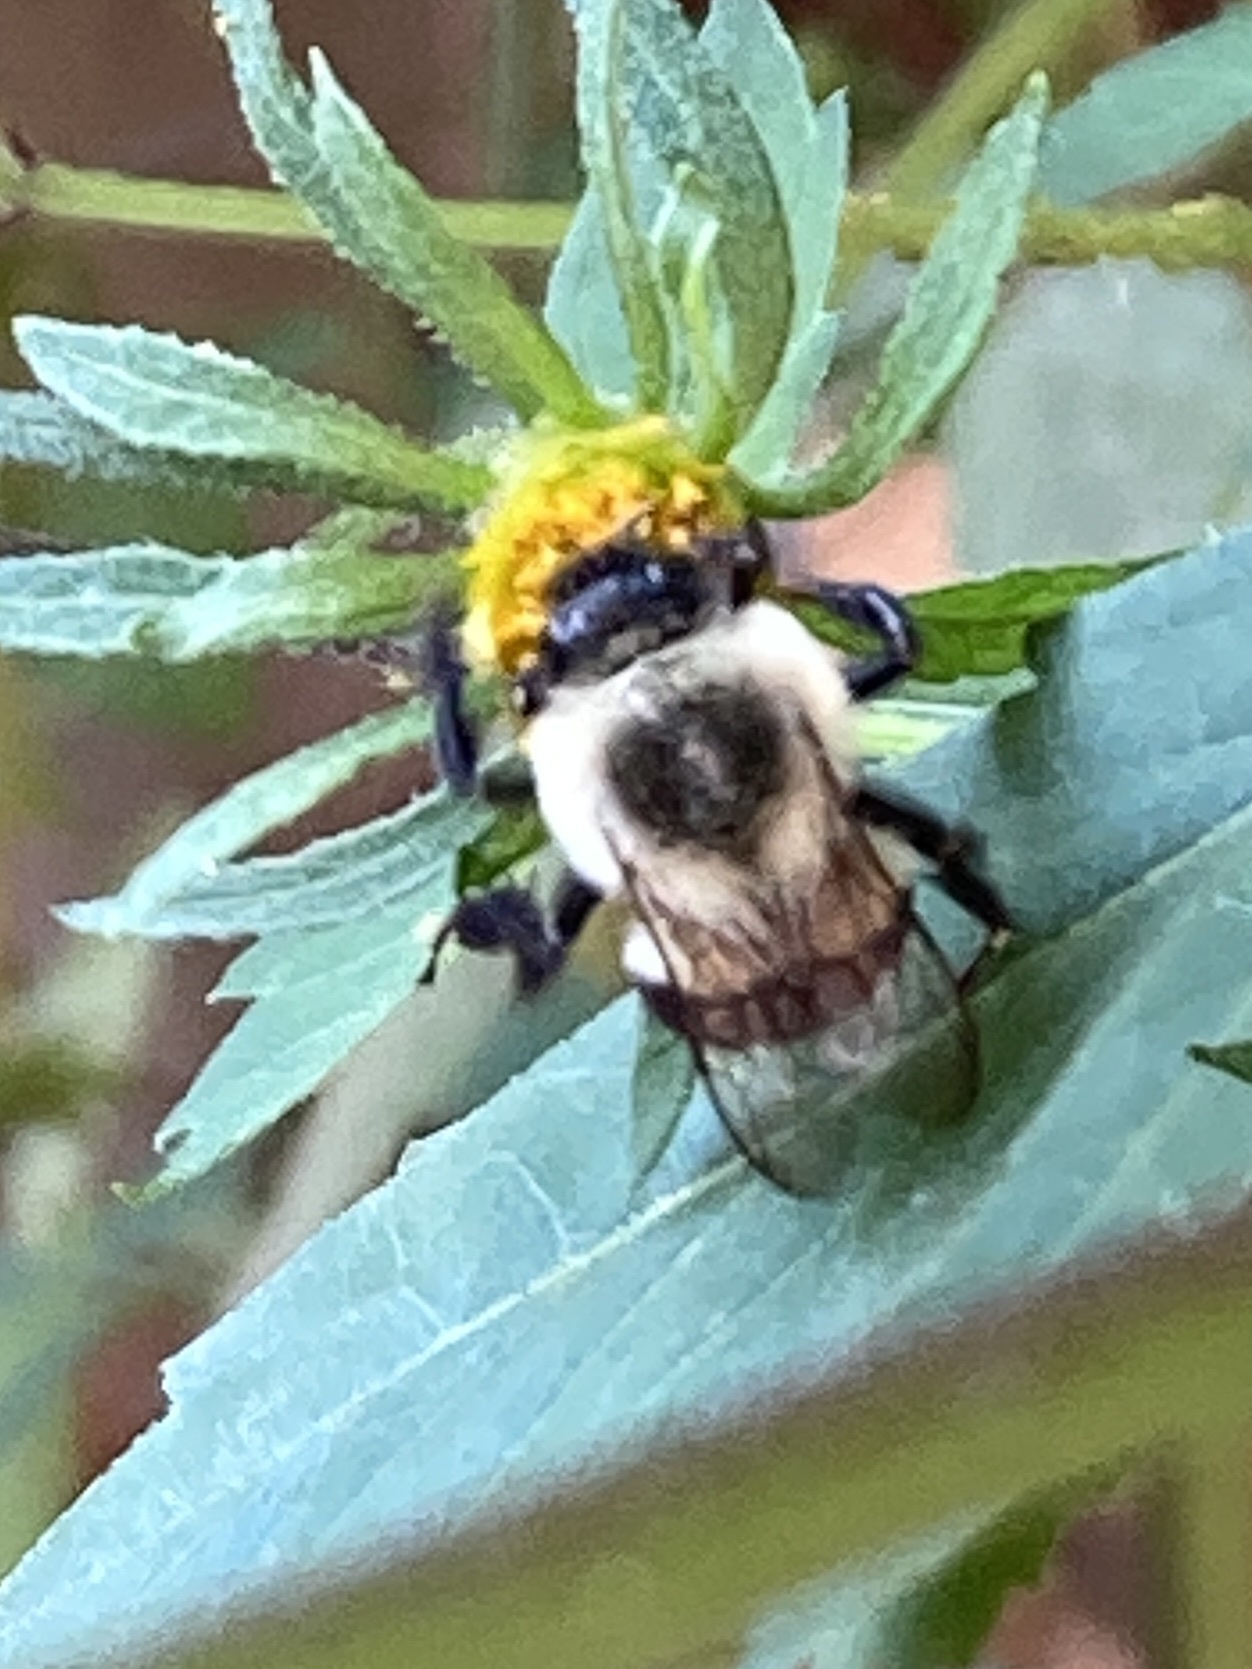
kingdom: Animalia
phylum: Arthropoda
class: Insecta
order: Hymenoptera
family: Apidae
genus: Bombus
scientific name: Bombus impatiens
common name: Common eastern bumble bee
